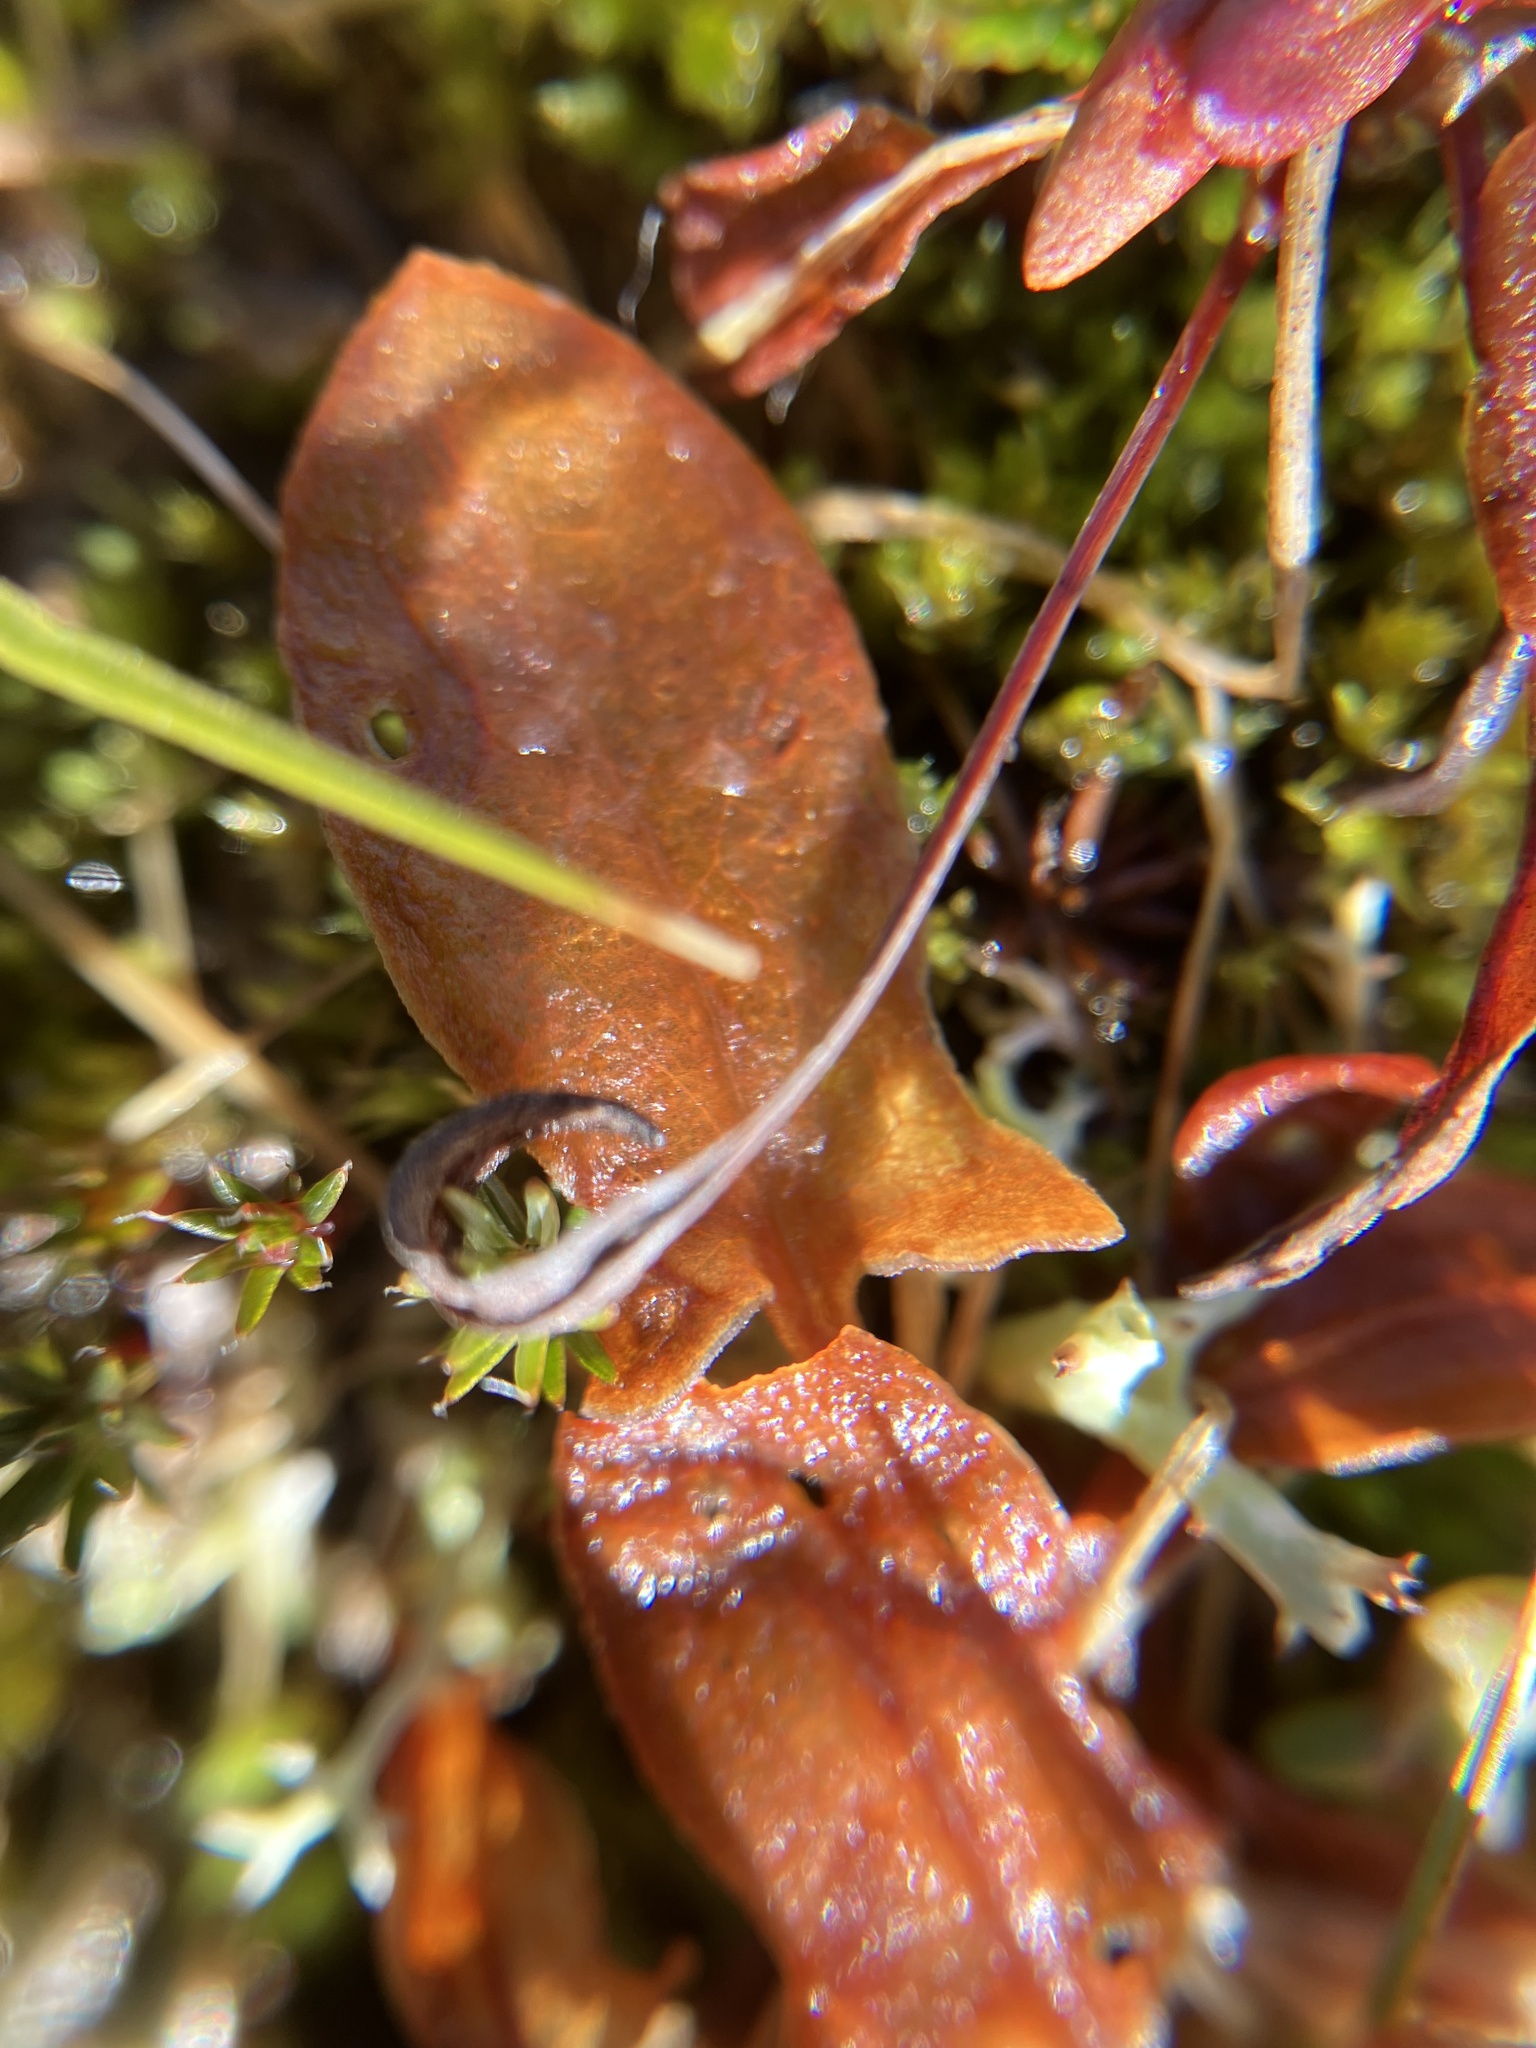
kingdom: Plantae
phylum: Tracheophyta
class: Magnoliopsida
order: Caryophyllales
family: Polygonaceae
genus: Rumex
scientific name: Rumex acetosella
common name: Common sheep sorrel
